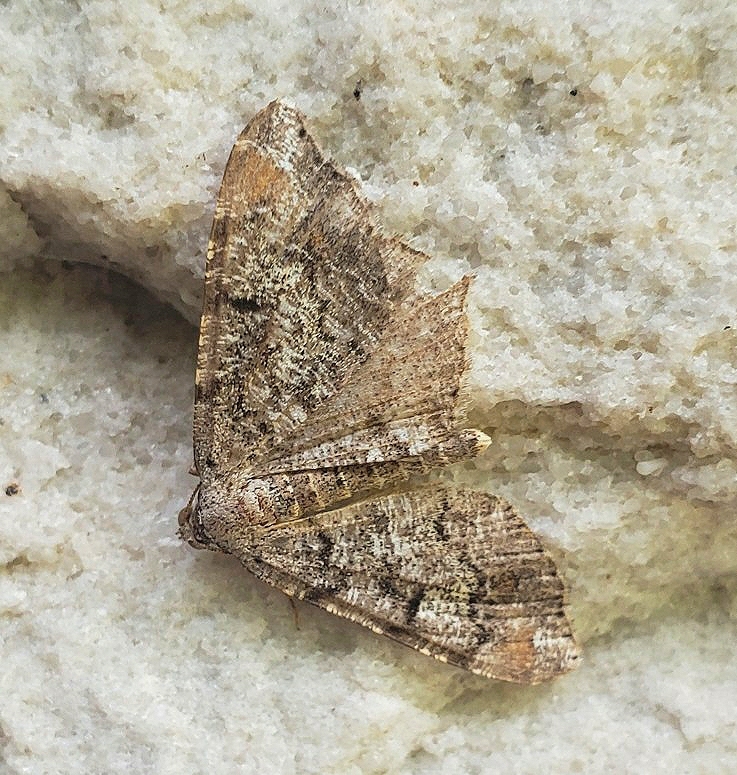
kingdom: Animalia
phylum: Arthropoda
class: Insecta
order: Lepidoptera
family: Geometridae
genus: Macaria
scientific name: Macaria granitata
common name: Granite moth
